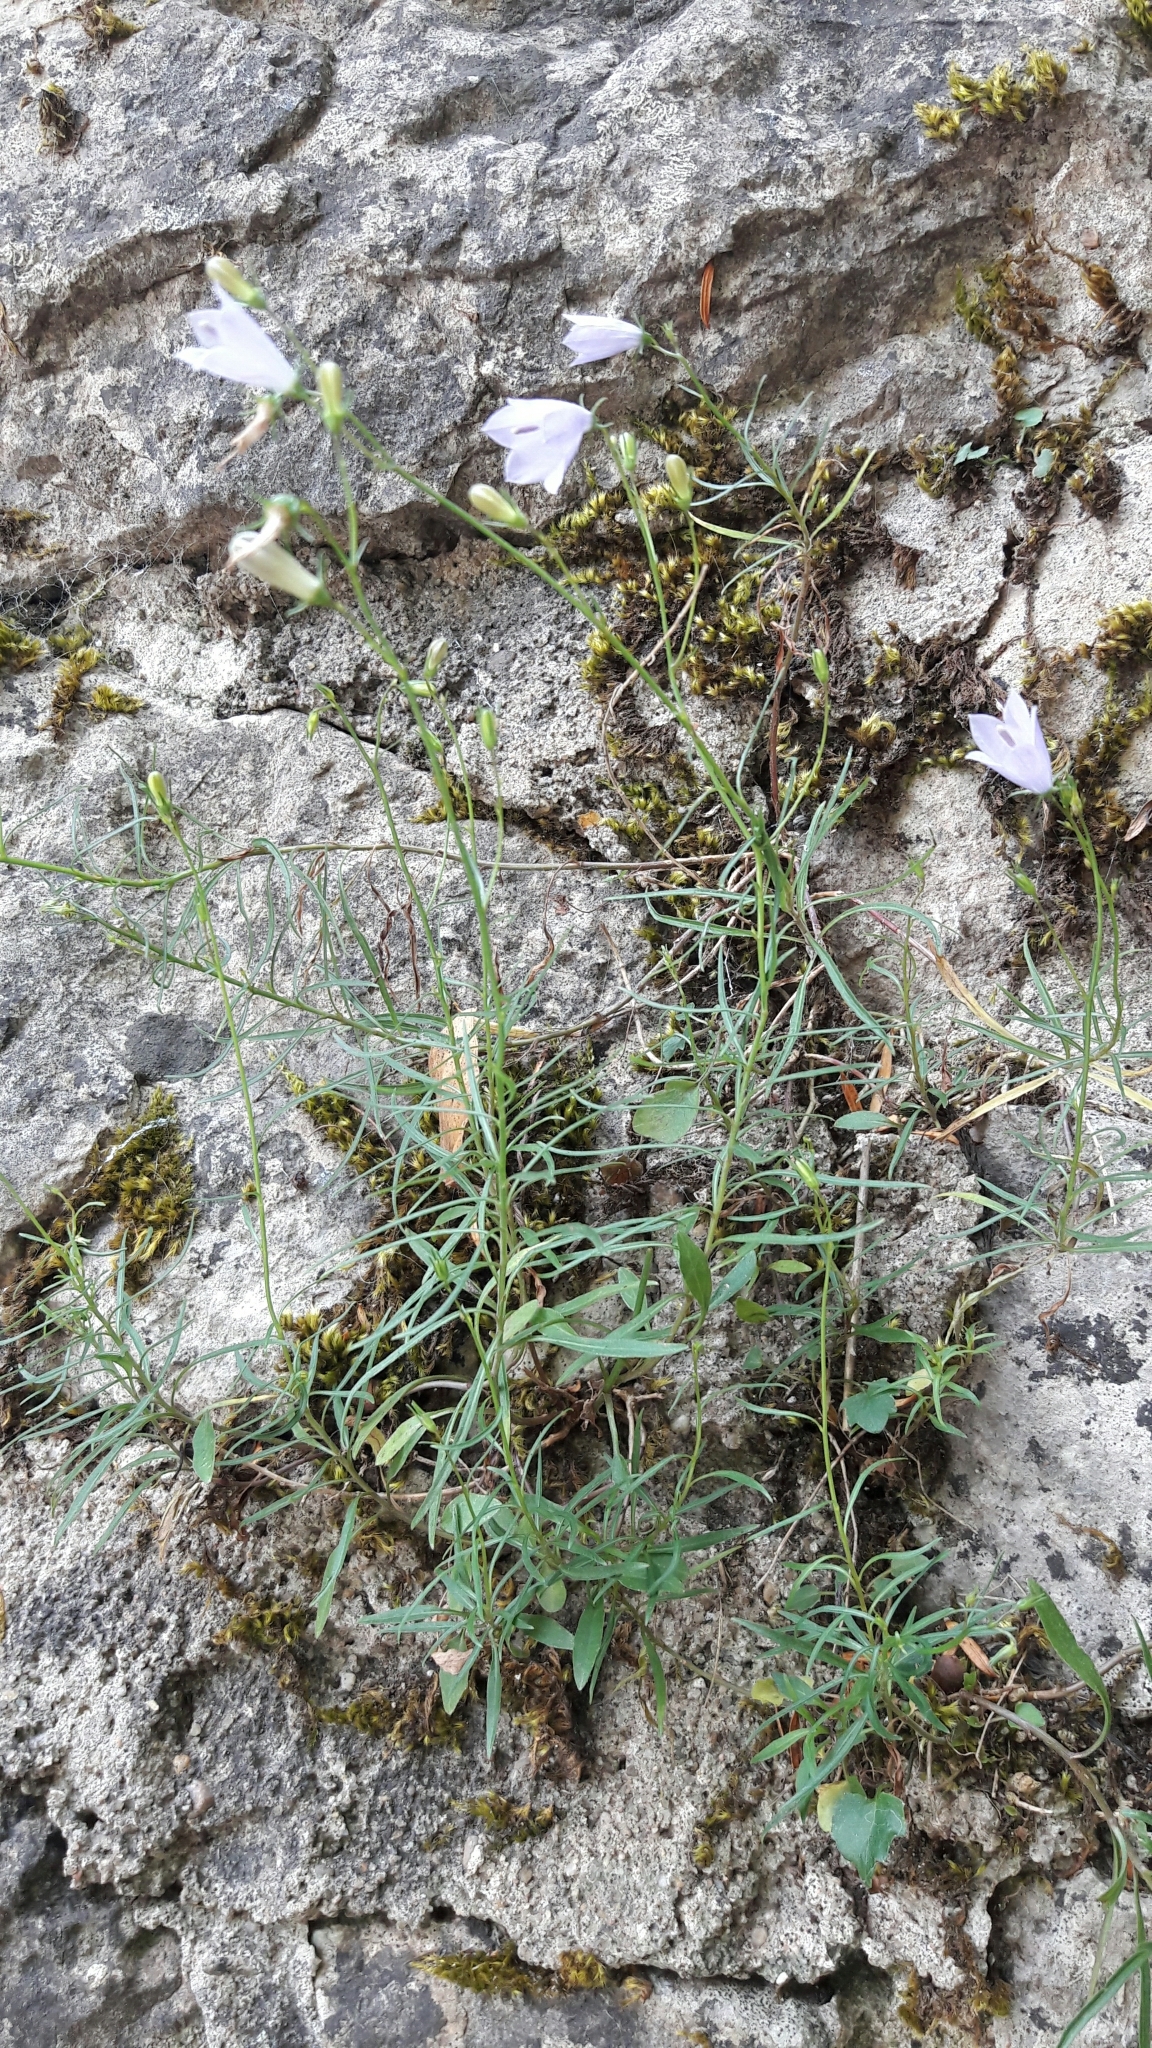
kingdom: Plantae
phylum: Tracheophyta
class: Magnoliopsida
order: Asterales
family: Campanulaceae
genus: Campanula
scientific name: Campanula rotundifolia
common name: Harebell
